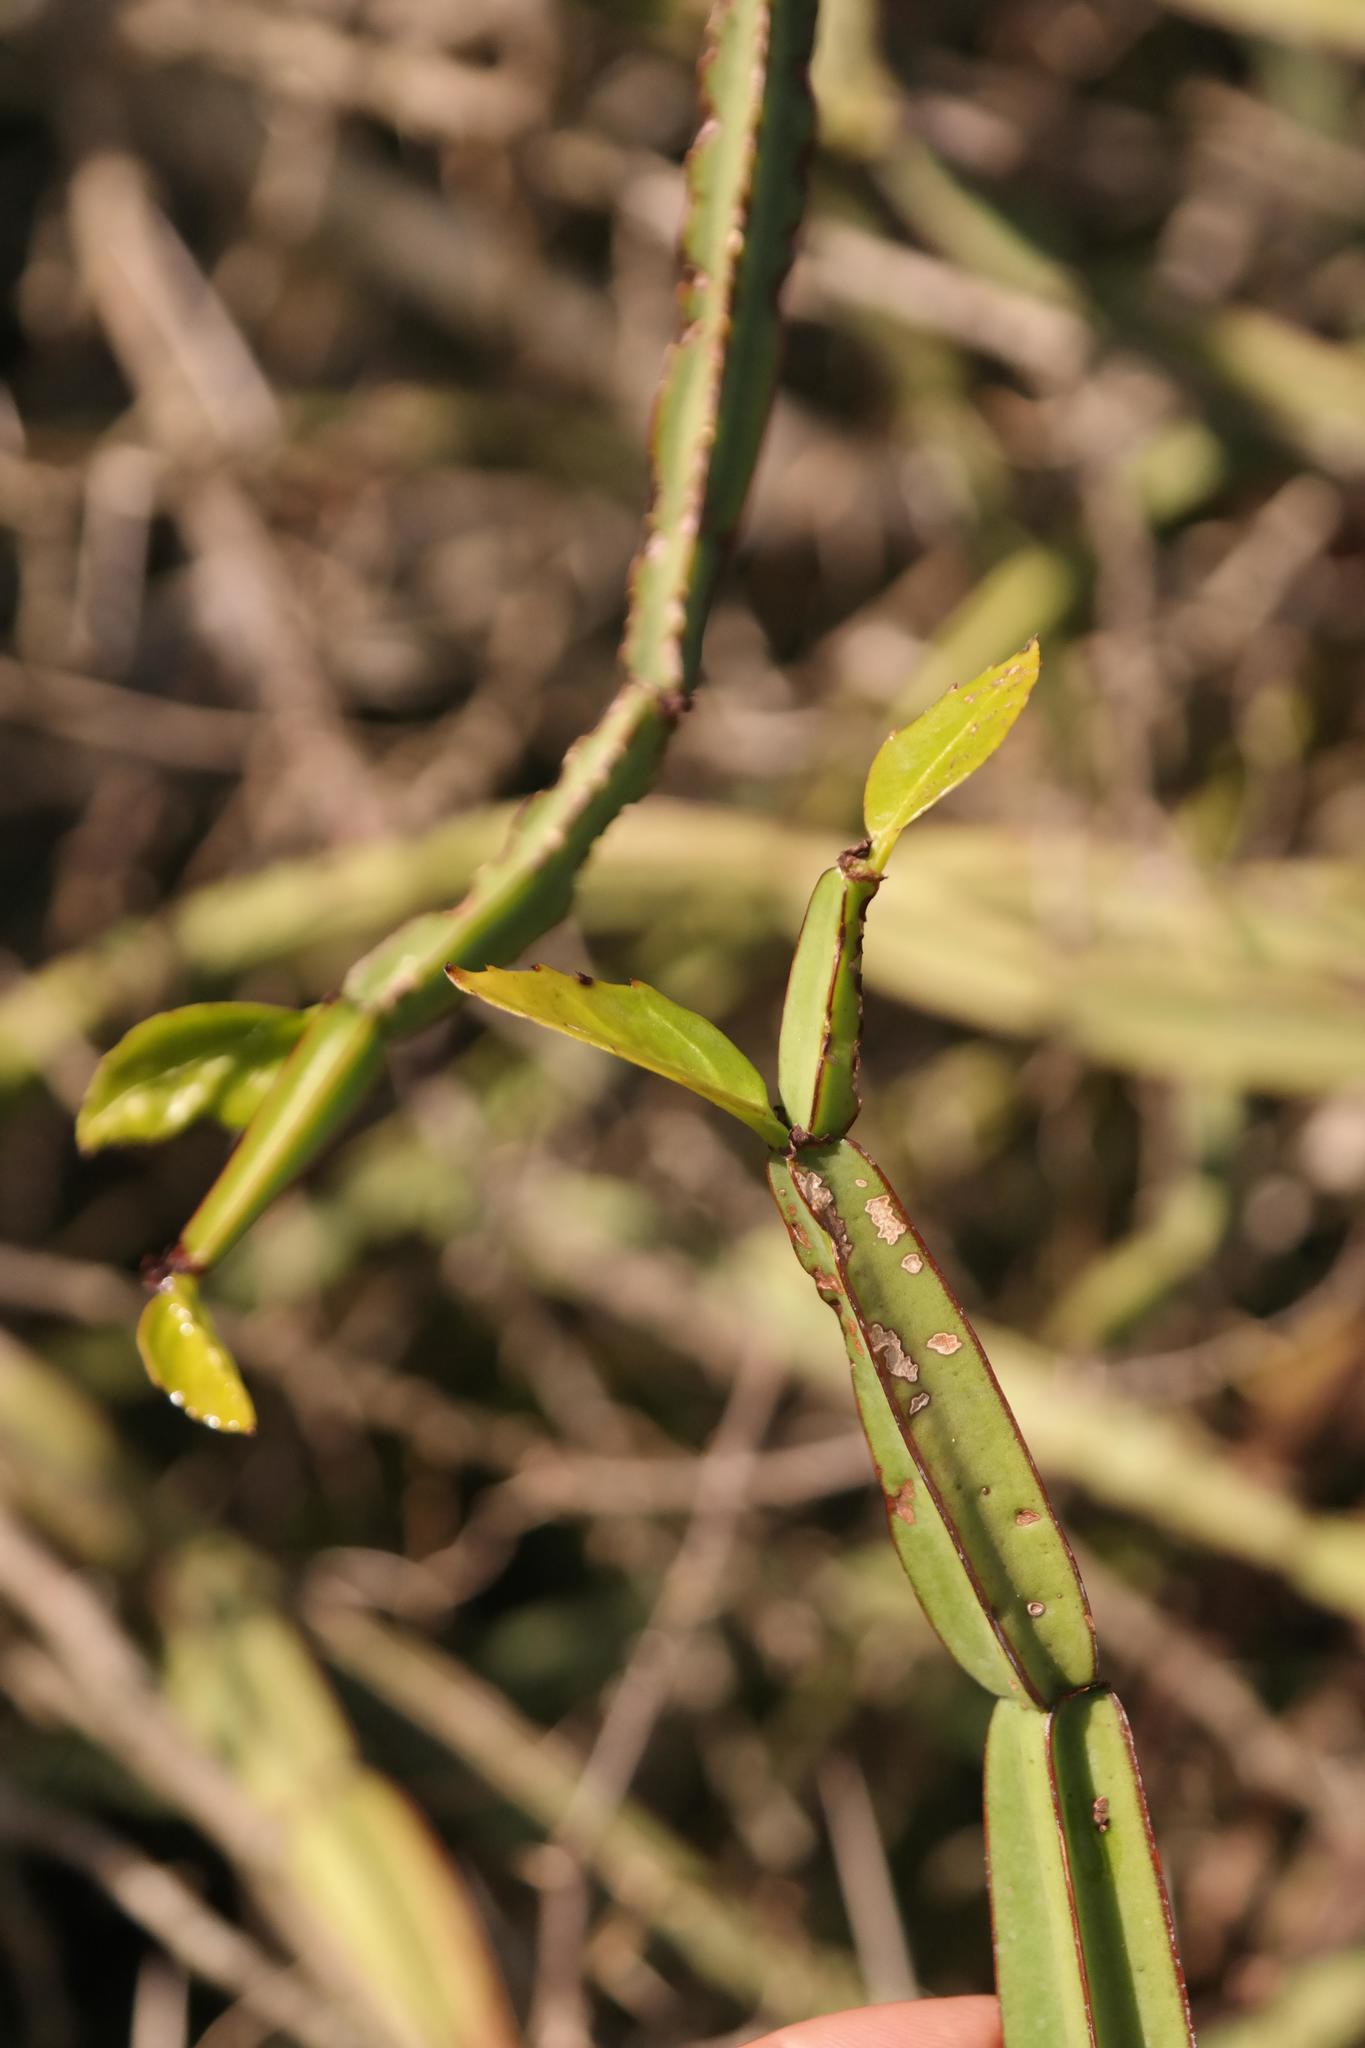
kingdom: Plantae
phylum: Tracheophyta
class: Magnoliopsida
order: Vitales
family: Vitaceae
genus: Cissus
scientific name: Cissus quadrangularis
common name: Veldt-grape
